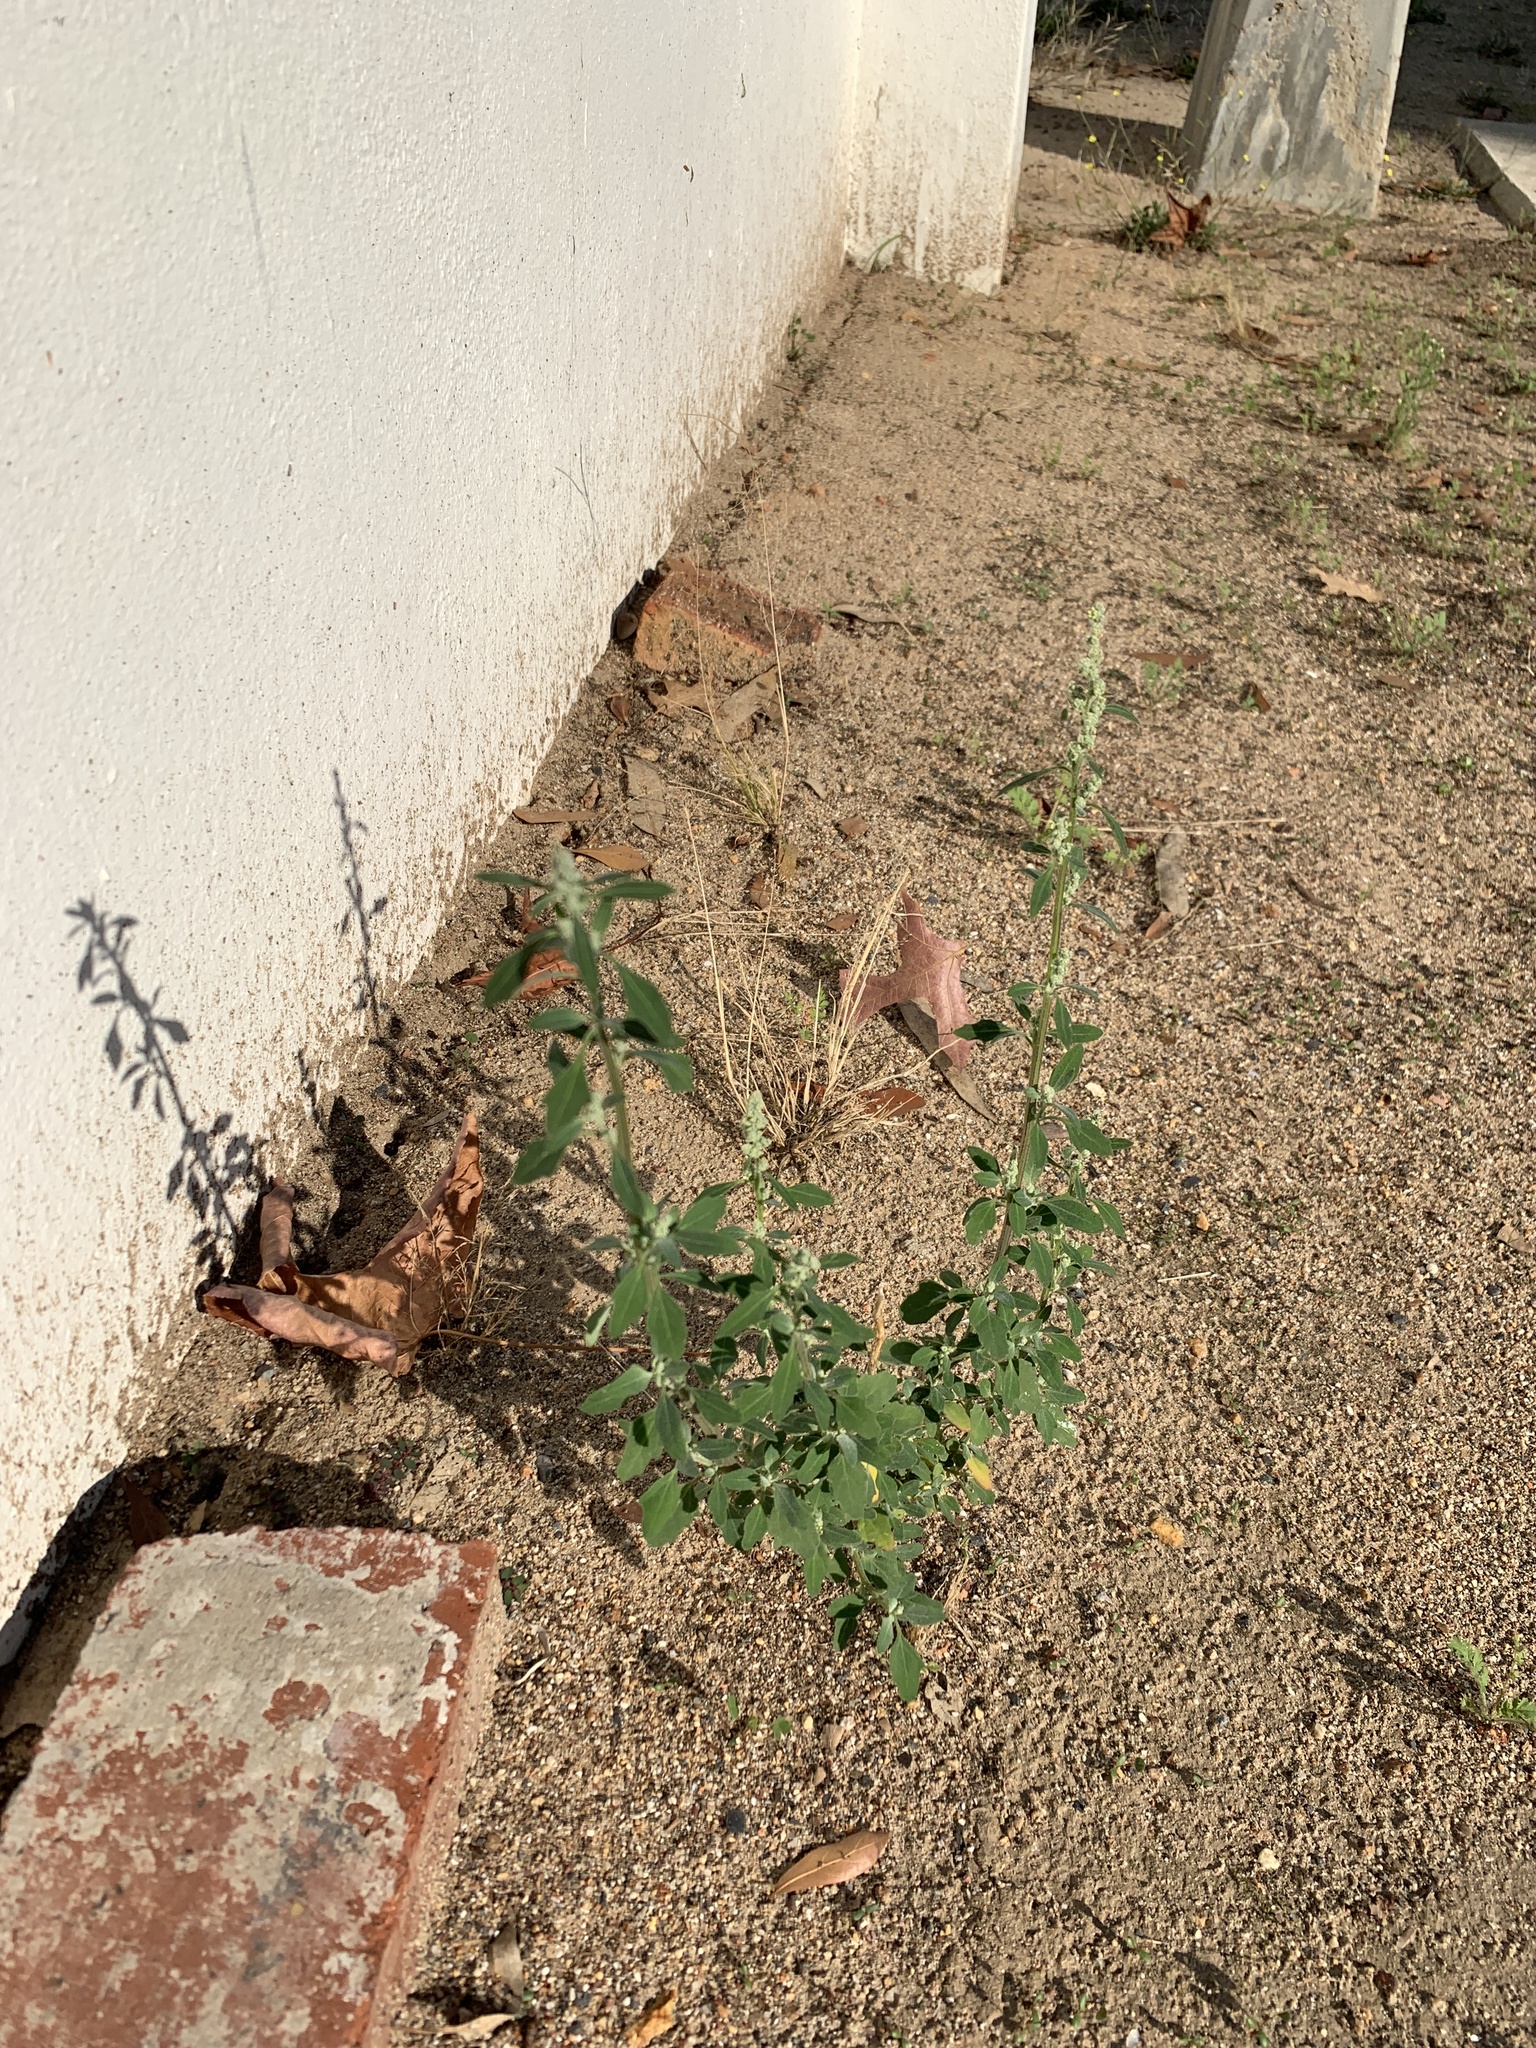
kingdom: Plantae
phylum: Tracheophyta
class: Magnoliopsida
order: Caryophyllales
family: Amaranthaceae
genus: Chenopodium
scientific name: Chenopodium album
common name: Fat-hen
